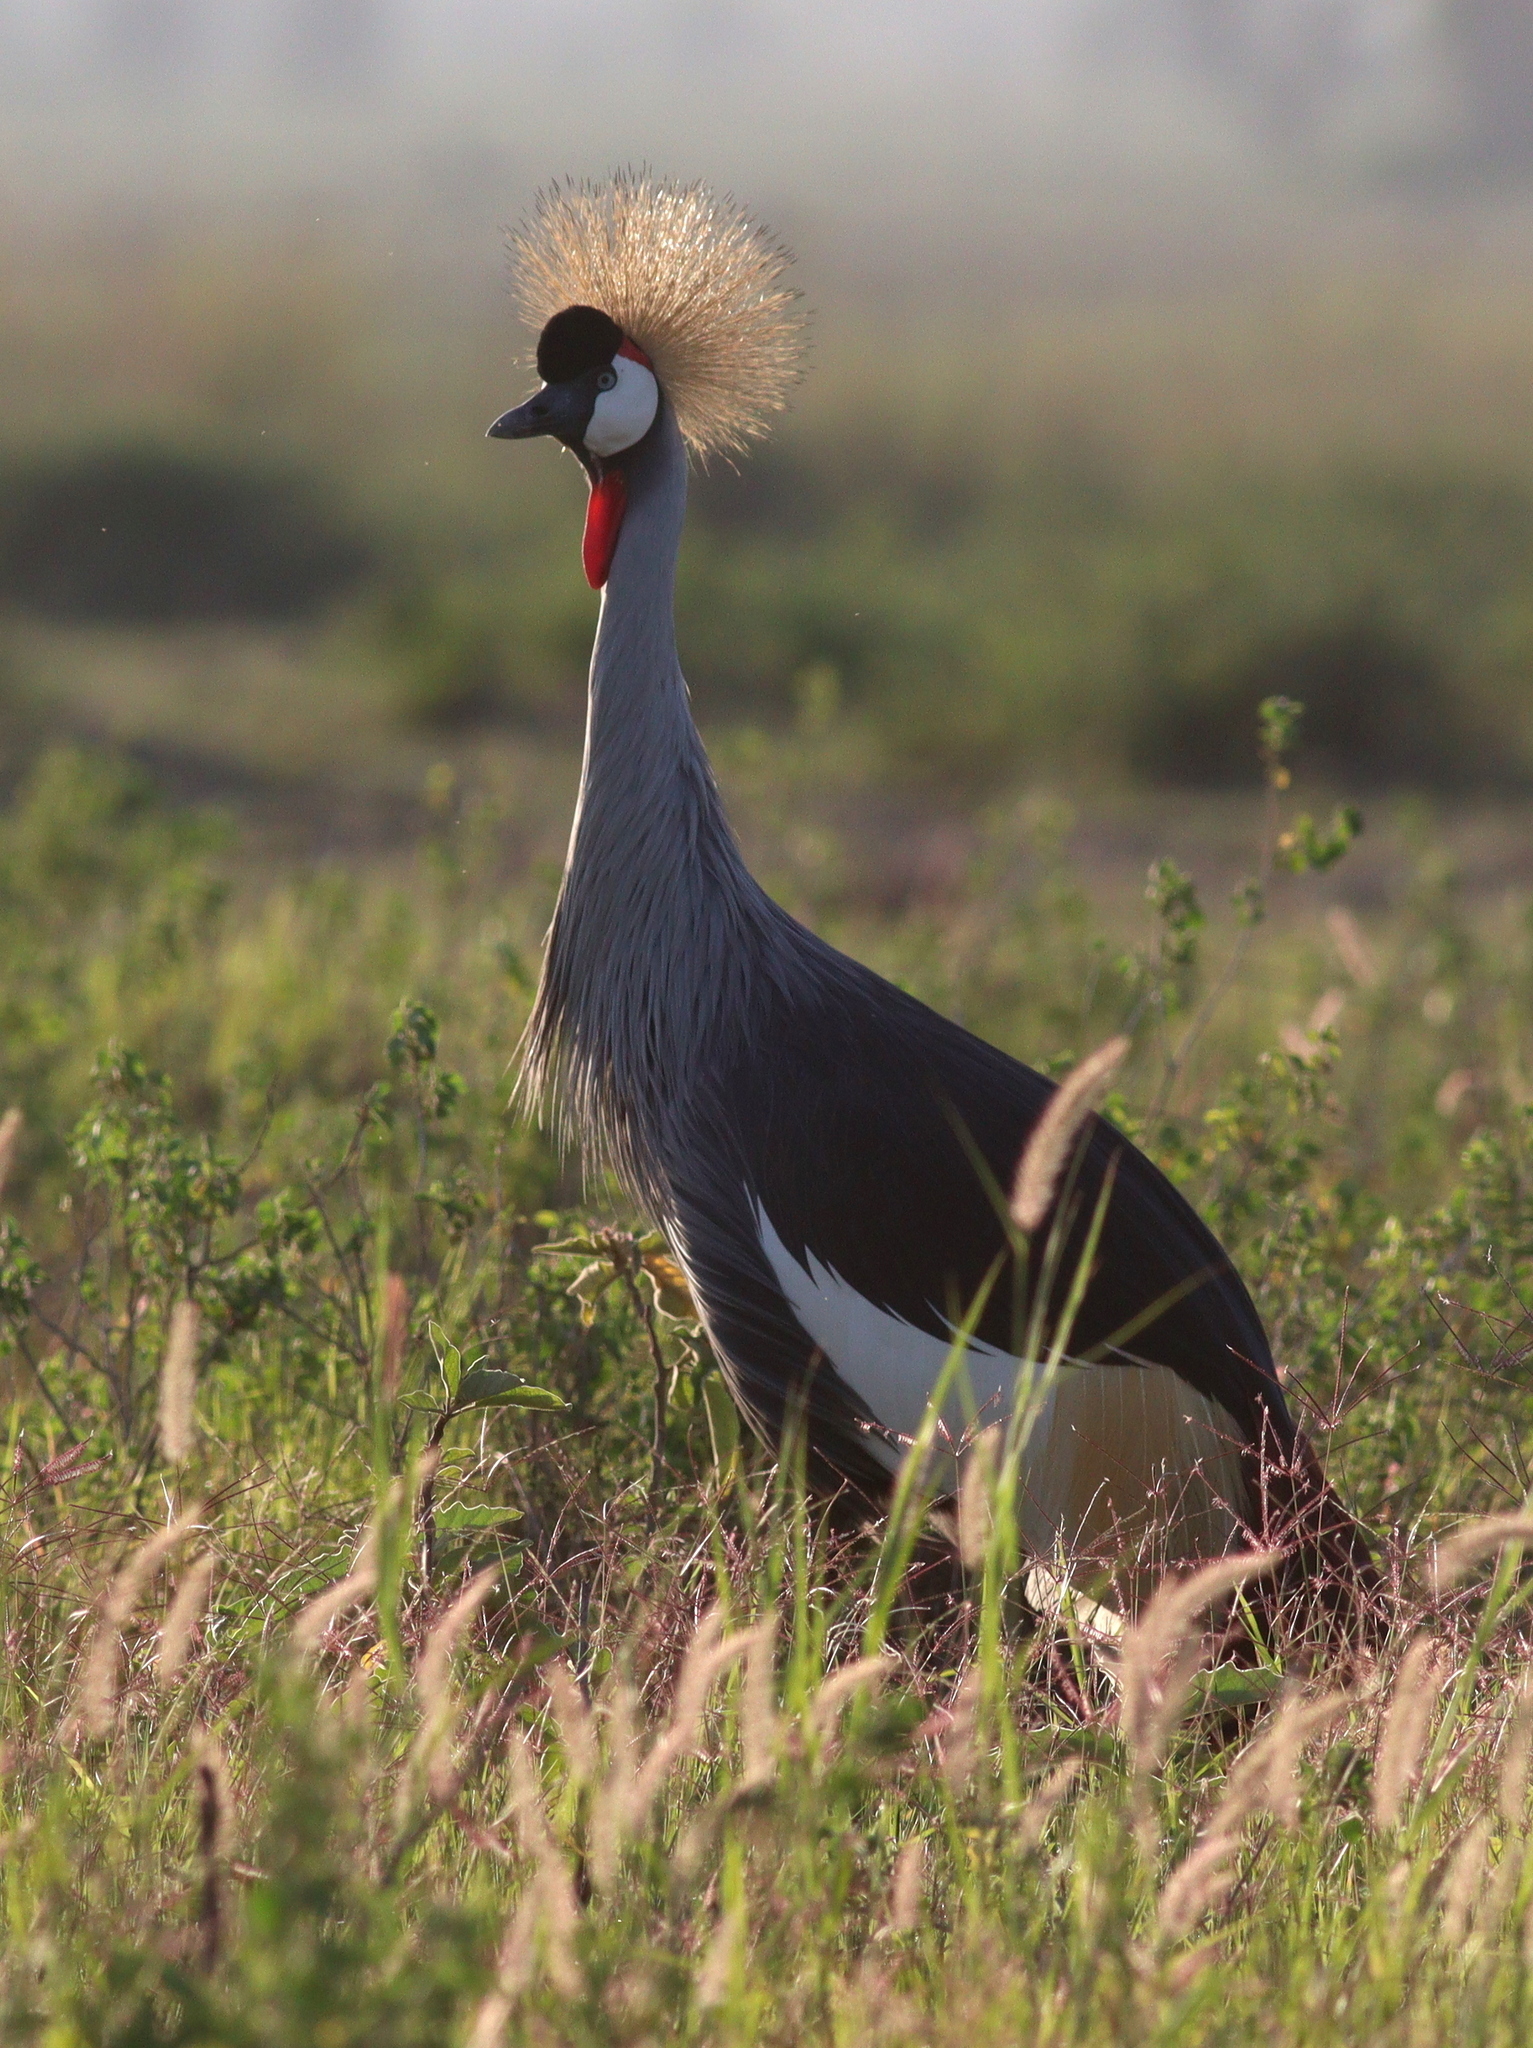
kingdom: Animalia
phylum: Chordata
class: Aves
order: Gruiformes
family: Gruidae
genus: Balearica
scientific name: Balearica regulorum
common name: Grey crowned crane
